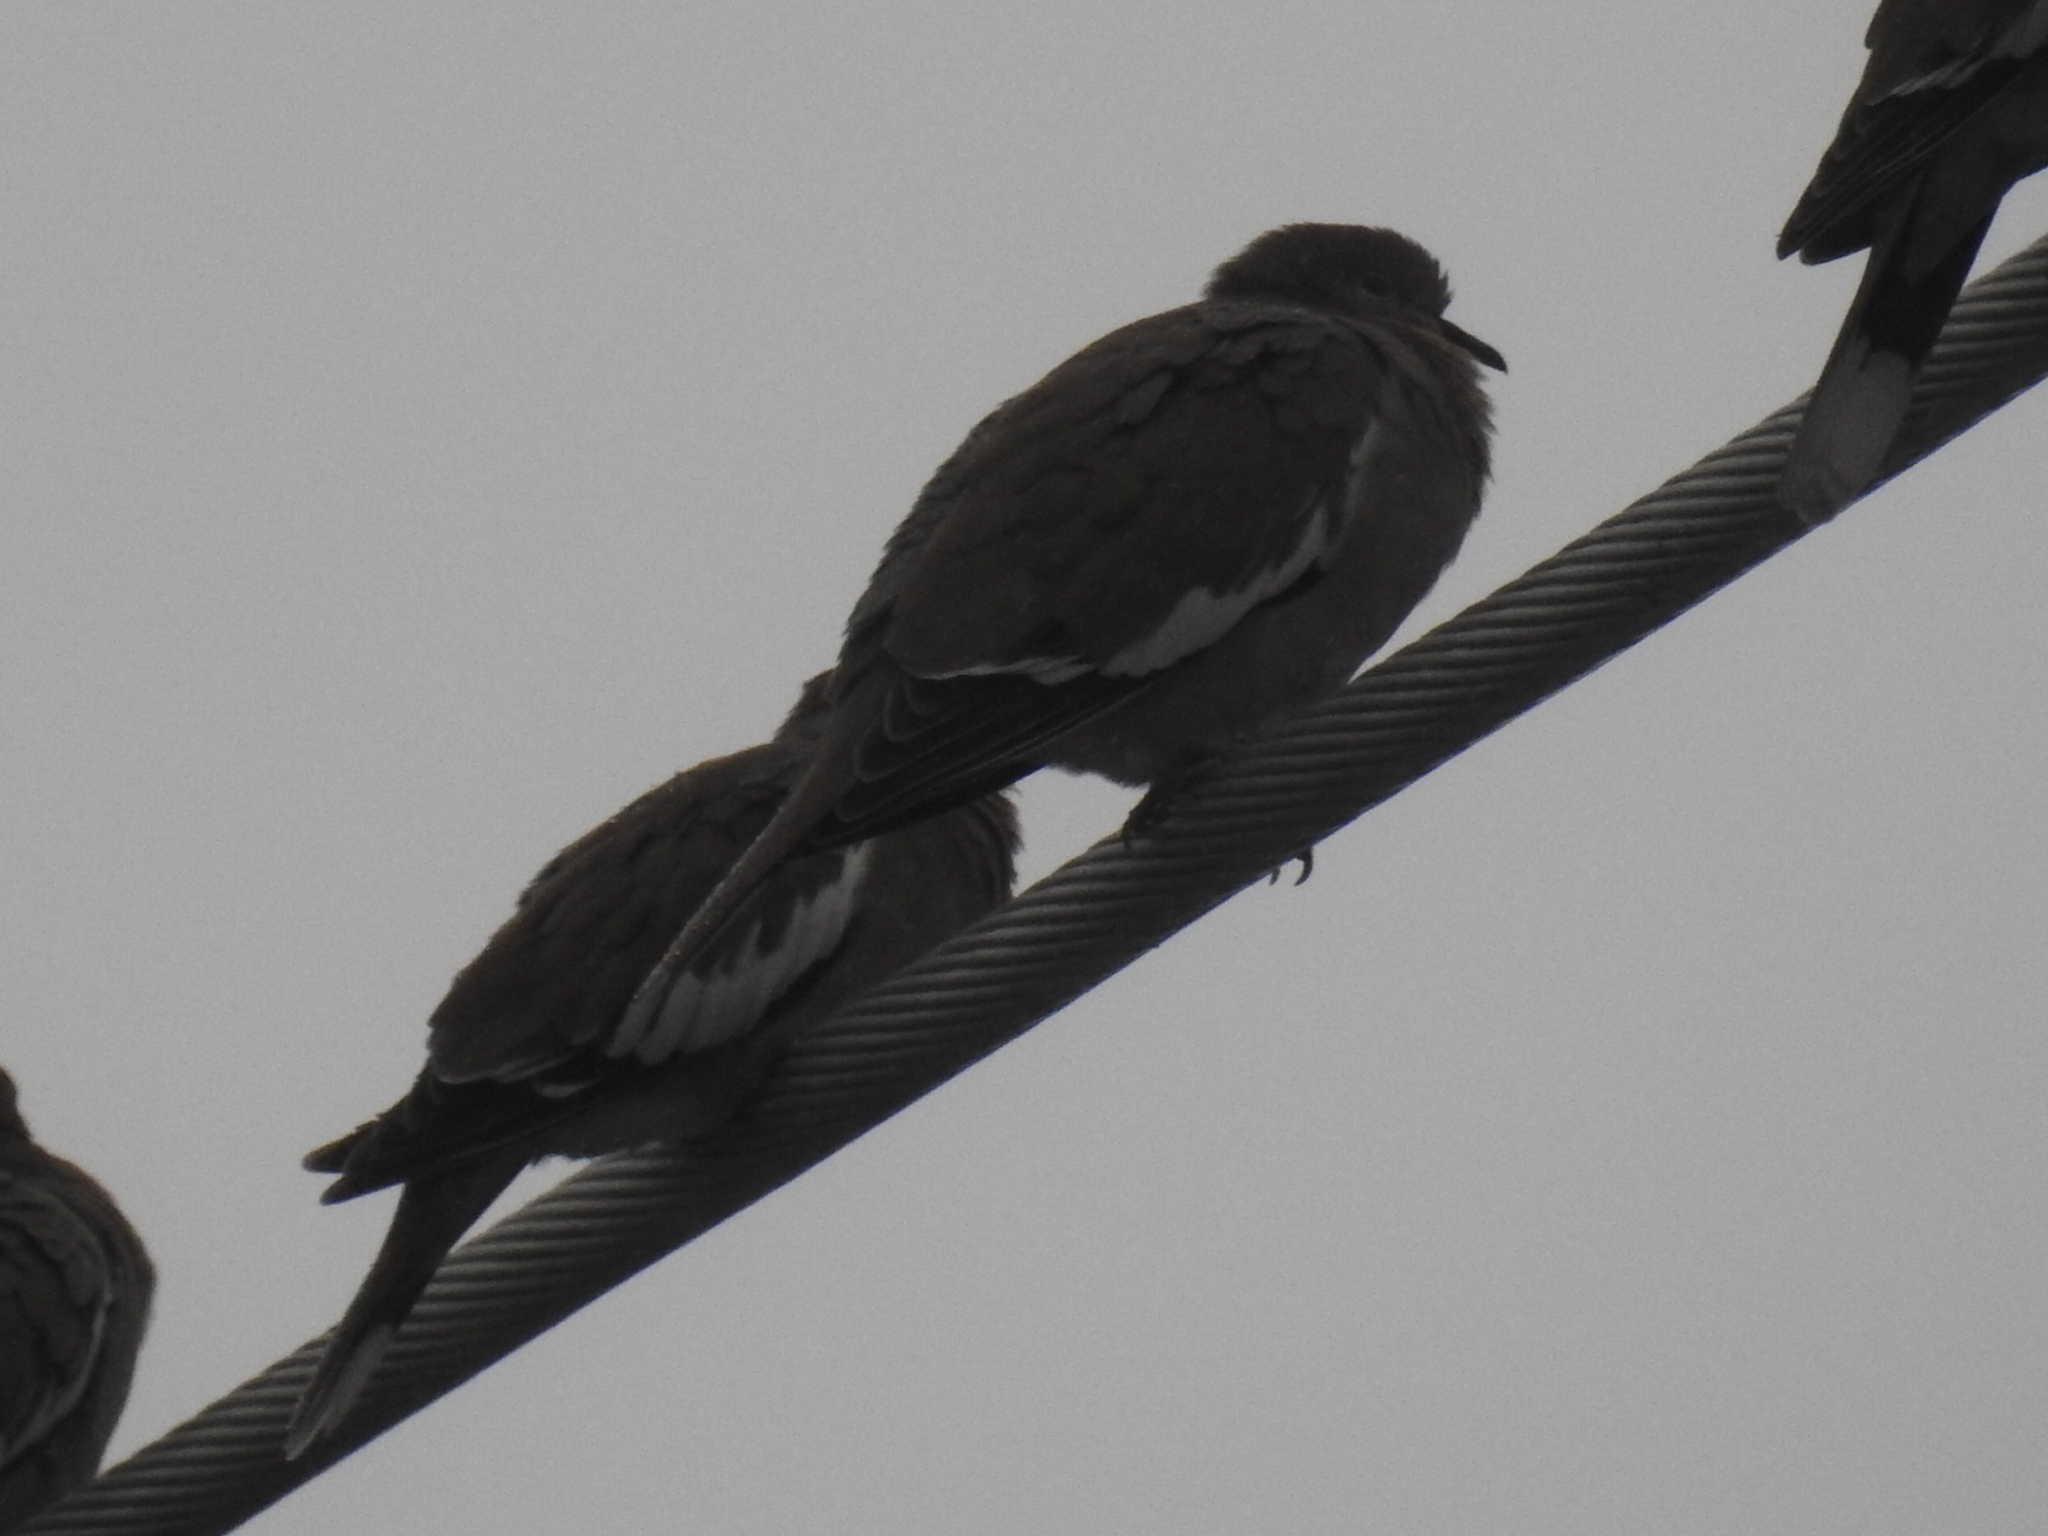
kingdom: Animalia
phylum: Chordata
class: Aves
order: Columbiformes
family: Columbidae
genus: Zenaida
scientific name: Zenaida asiatica
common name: White-winged dove
